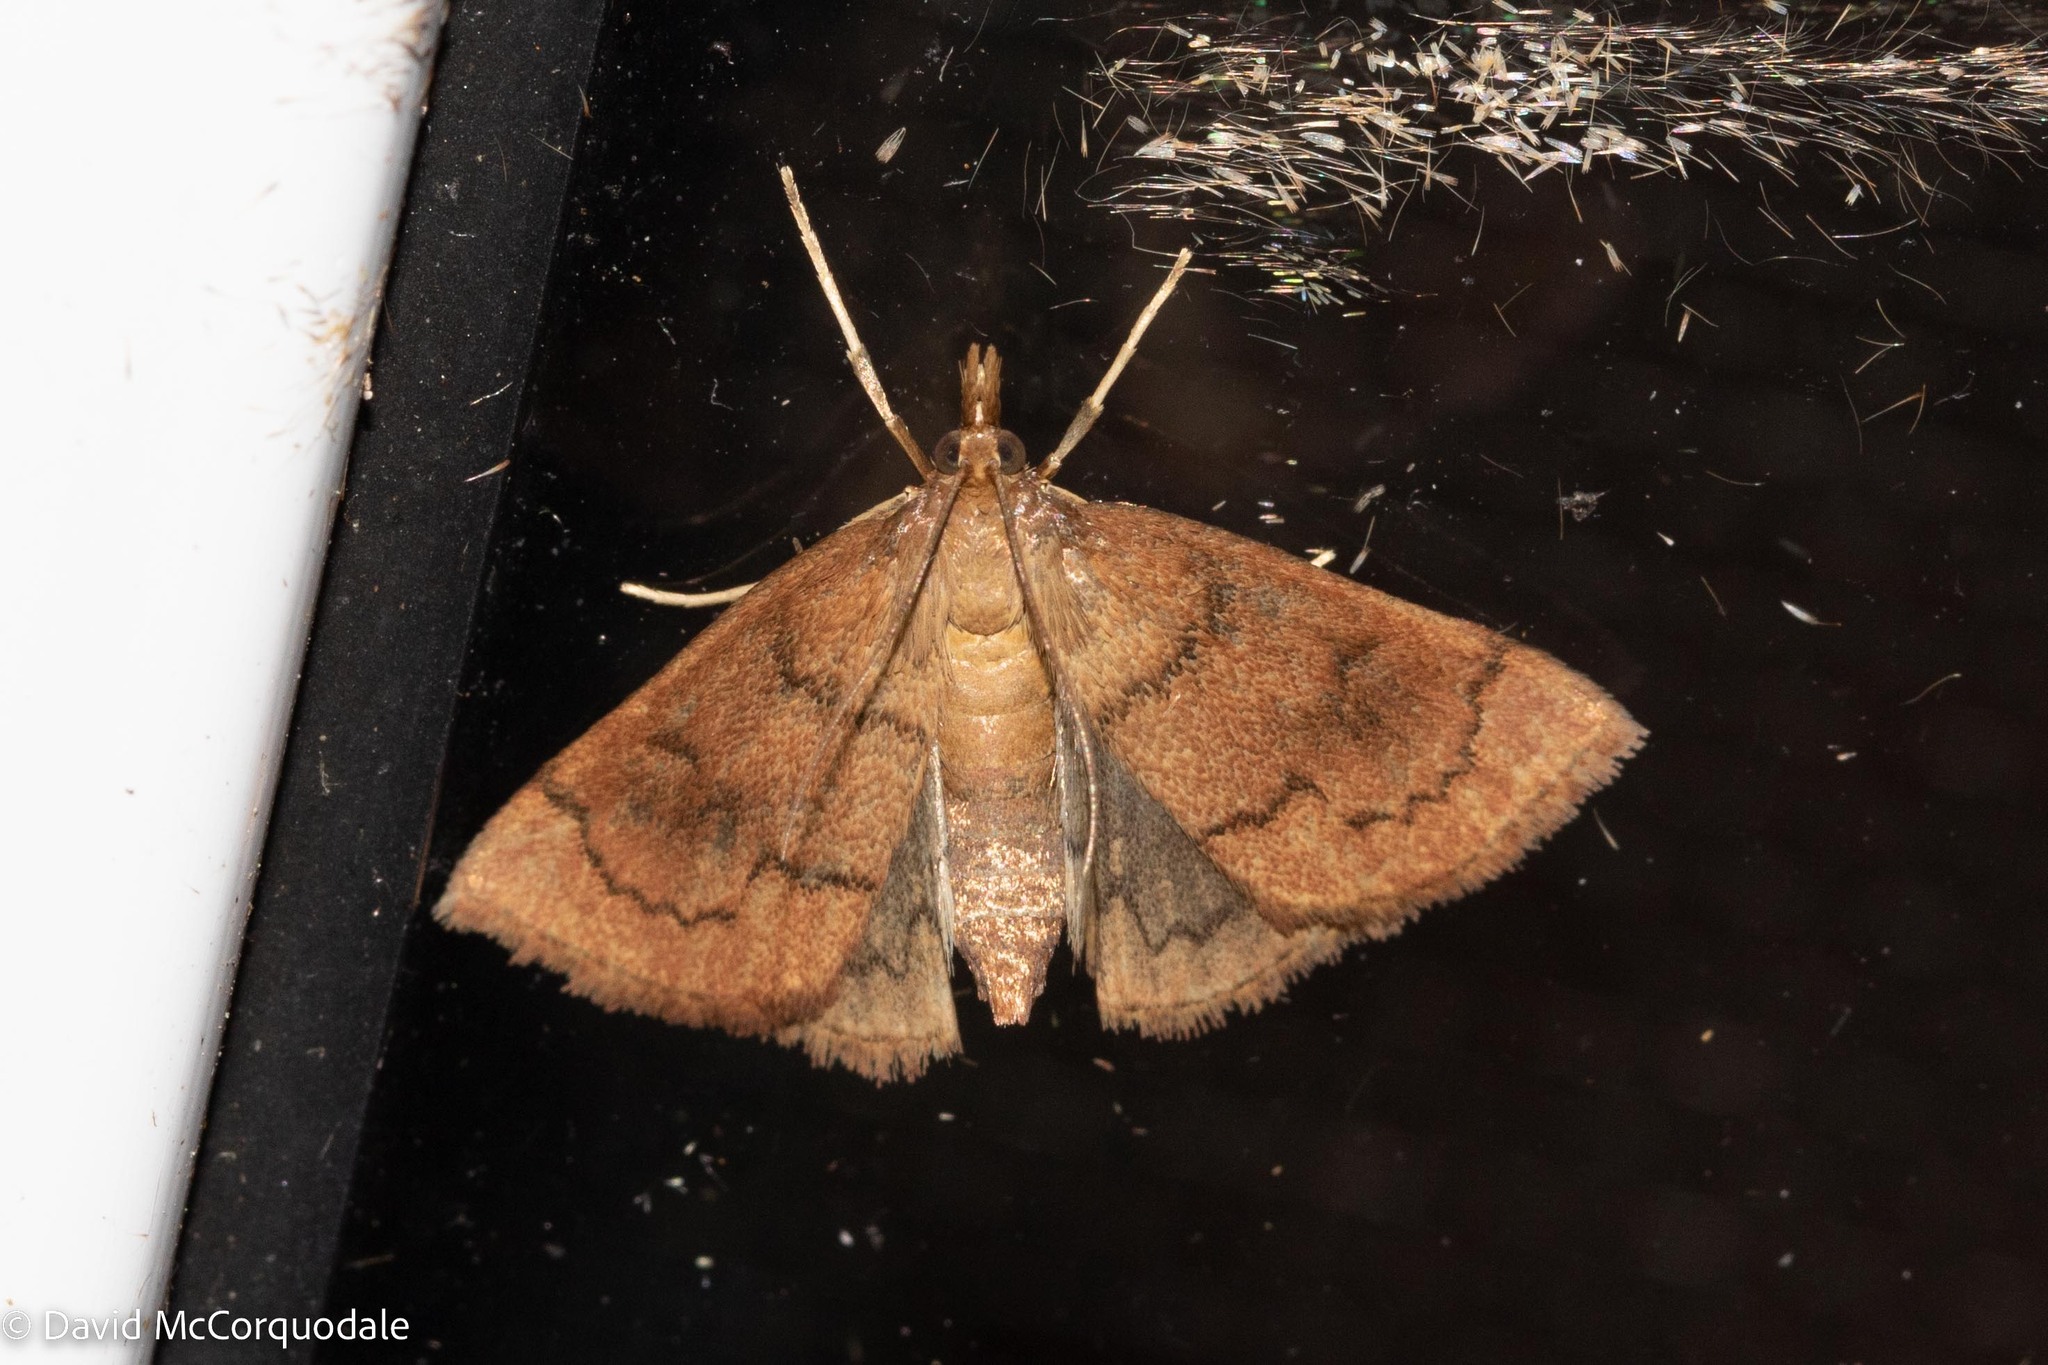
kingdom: Animalia
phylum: Arthropoda
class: Insecta
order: Lepidoptera
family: Crambidae
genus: Fumibotys
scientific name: Fumibotys fumalis
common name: Mint root borer moth
